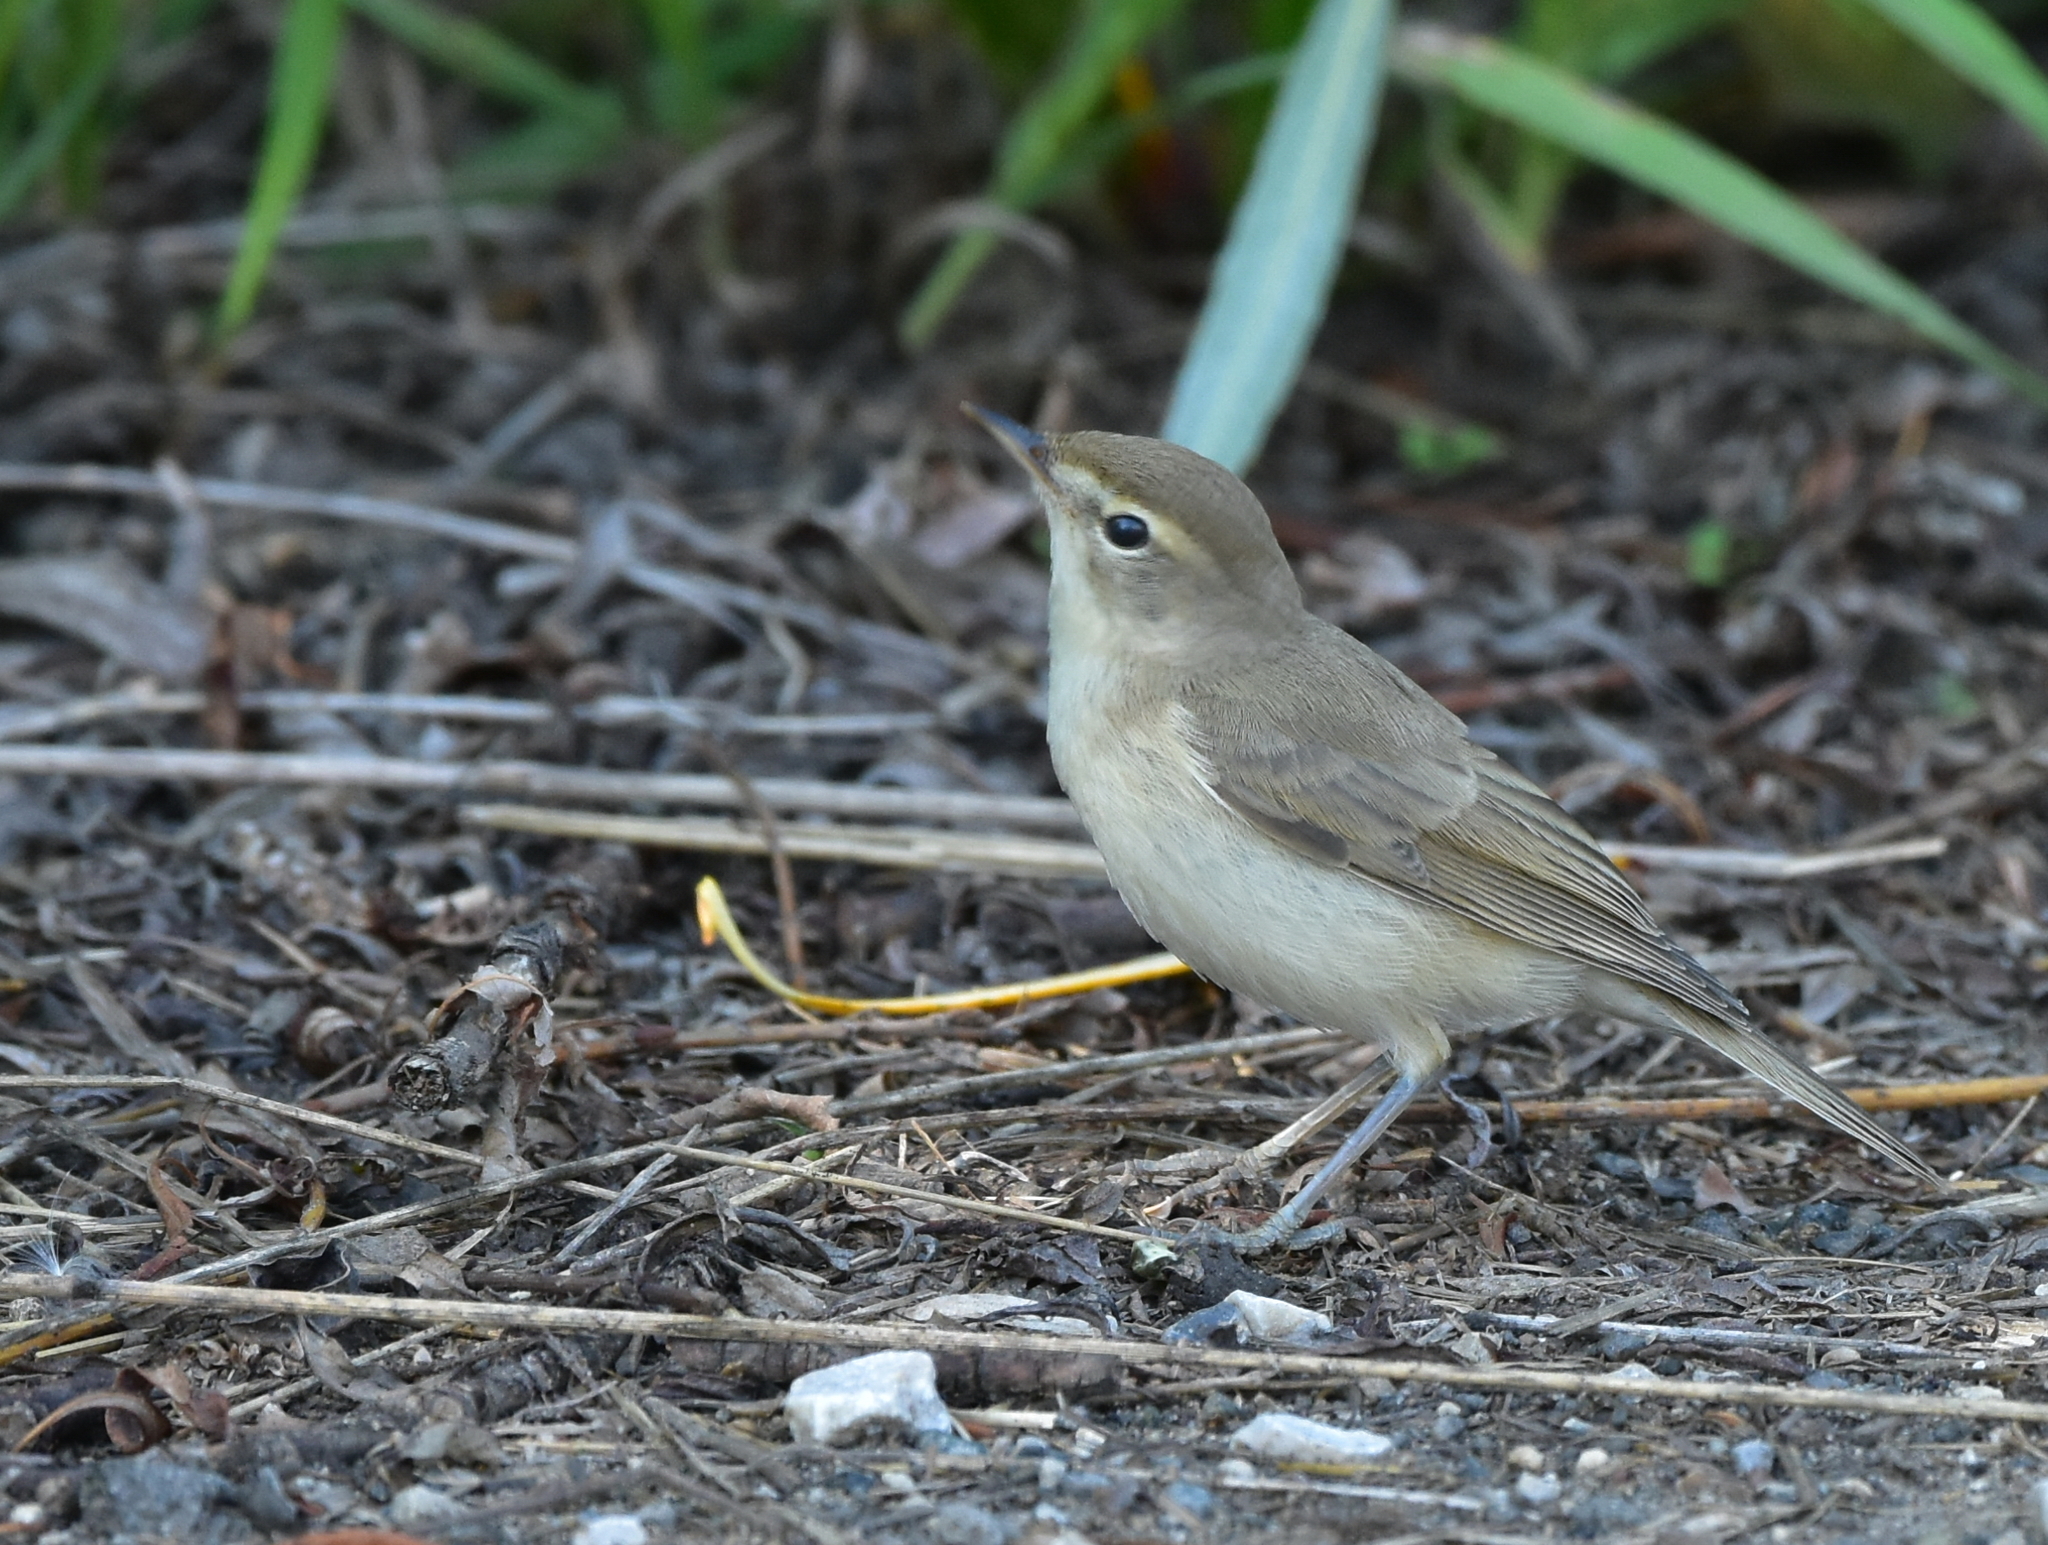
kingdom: Animalia
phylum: Chordata
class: Aves
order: Passeriformes
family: Acrocephalidae
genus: Iduna
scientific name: Iduna caligata
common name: Booted warbler
